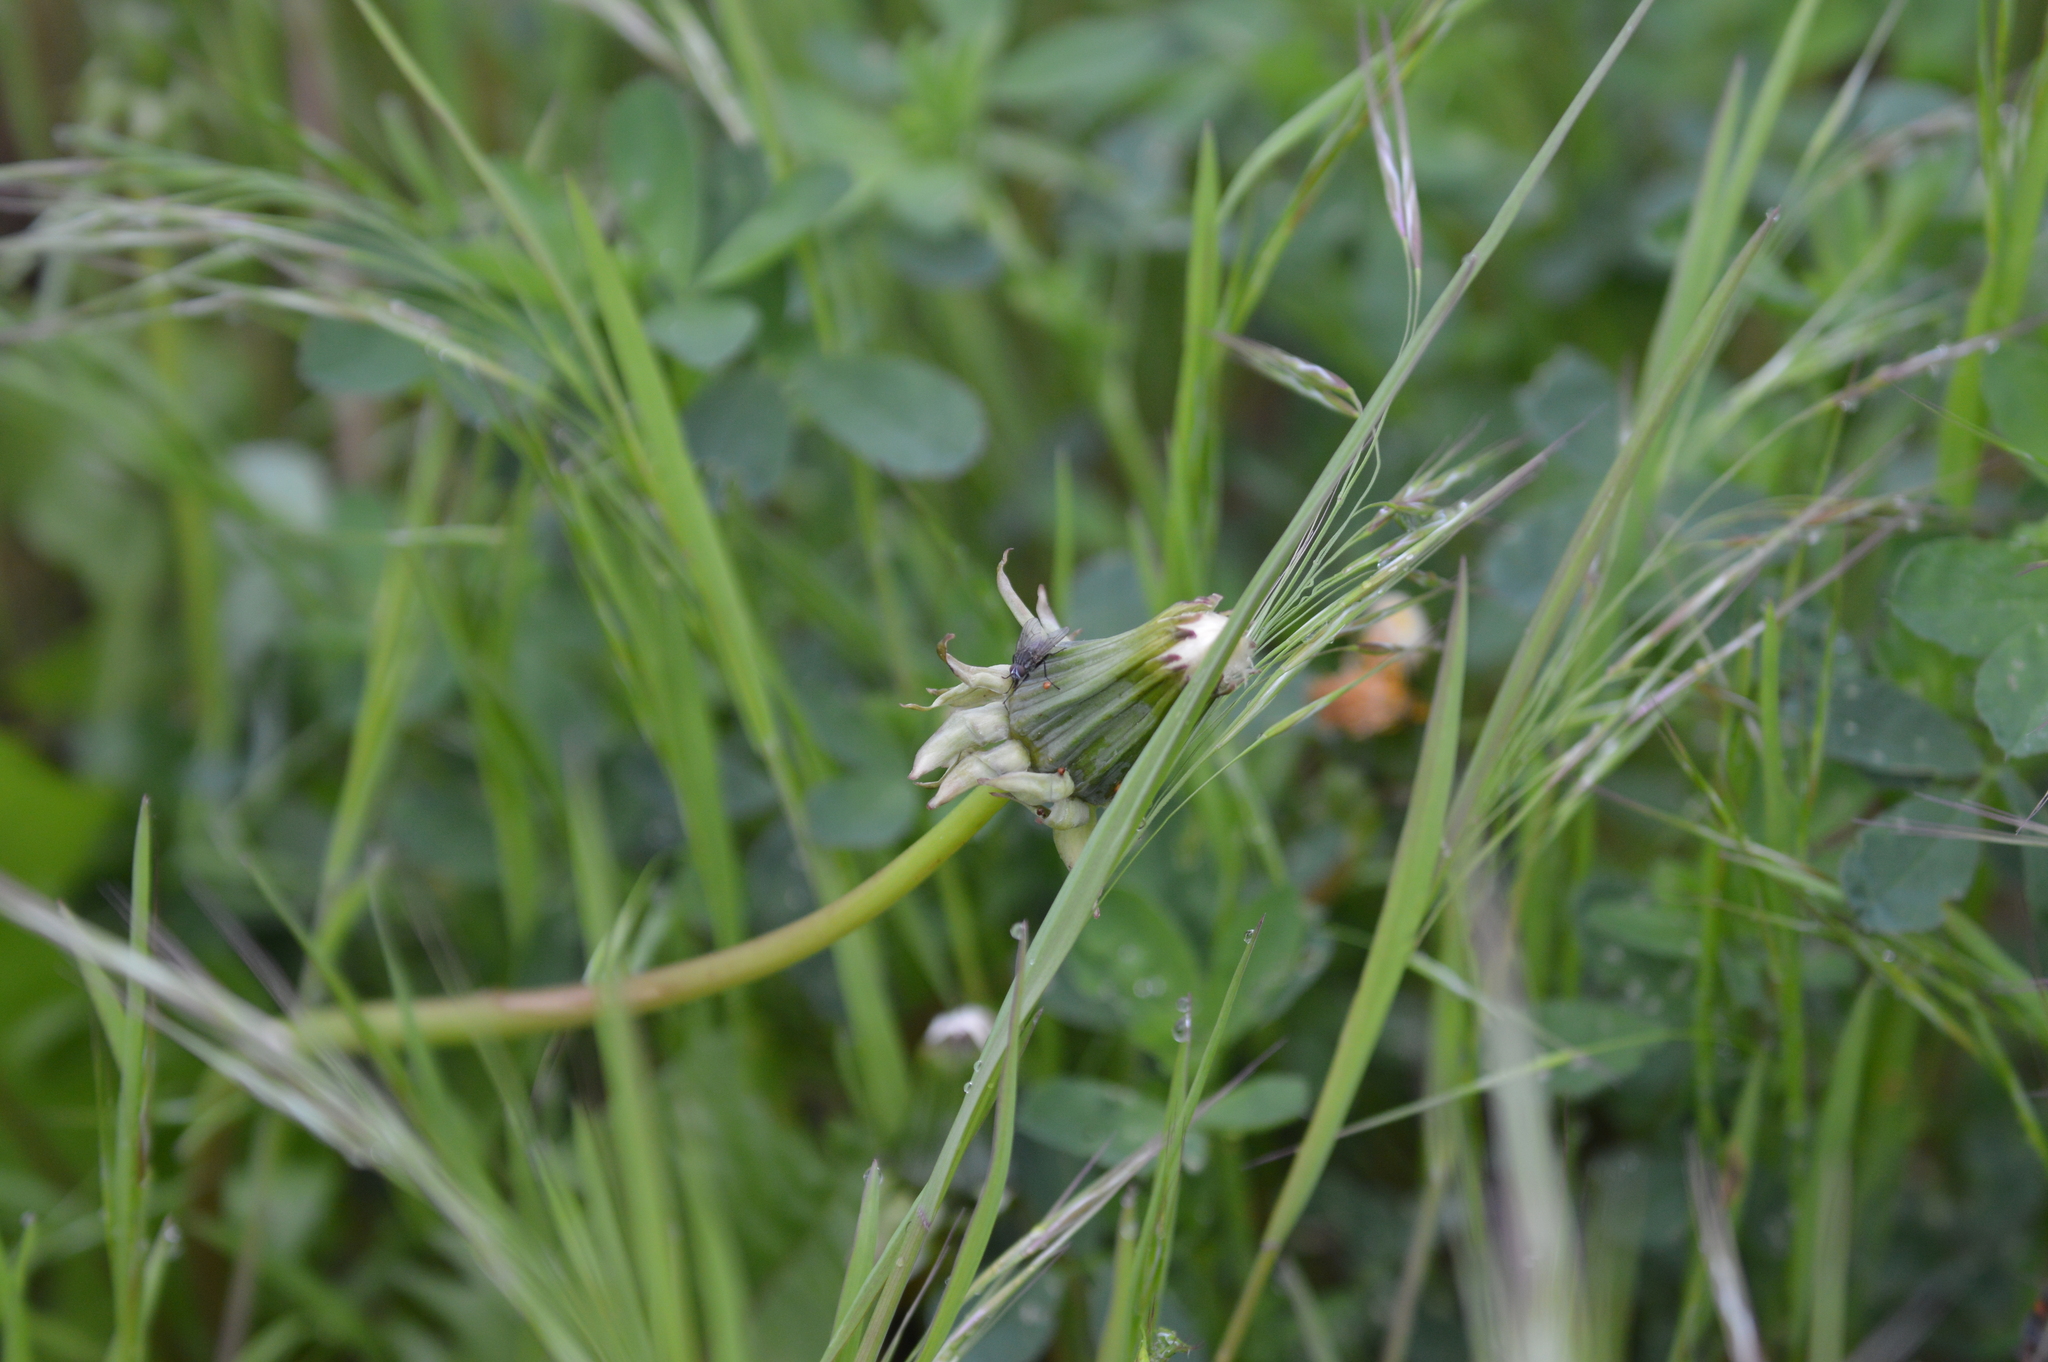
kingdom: Plantae
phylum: Tracheophyta
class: Liliopsida
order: Poales
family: Poaceae
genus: Bromus
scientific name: Bromus sterilis
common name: Poverty brome
